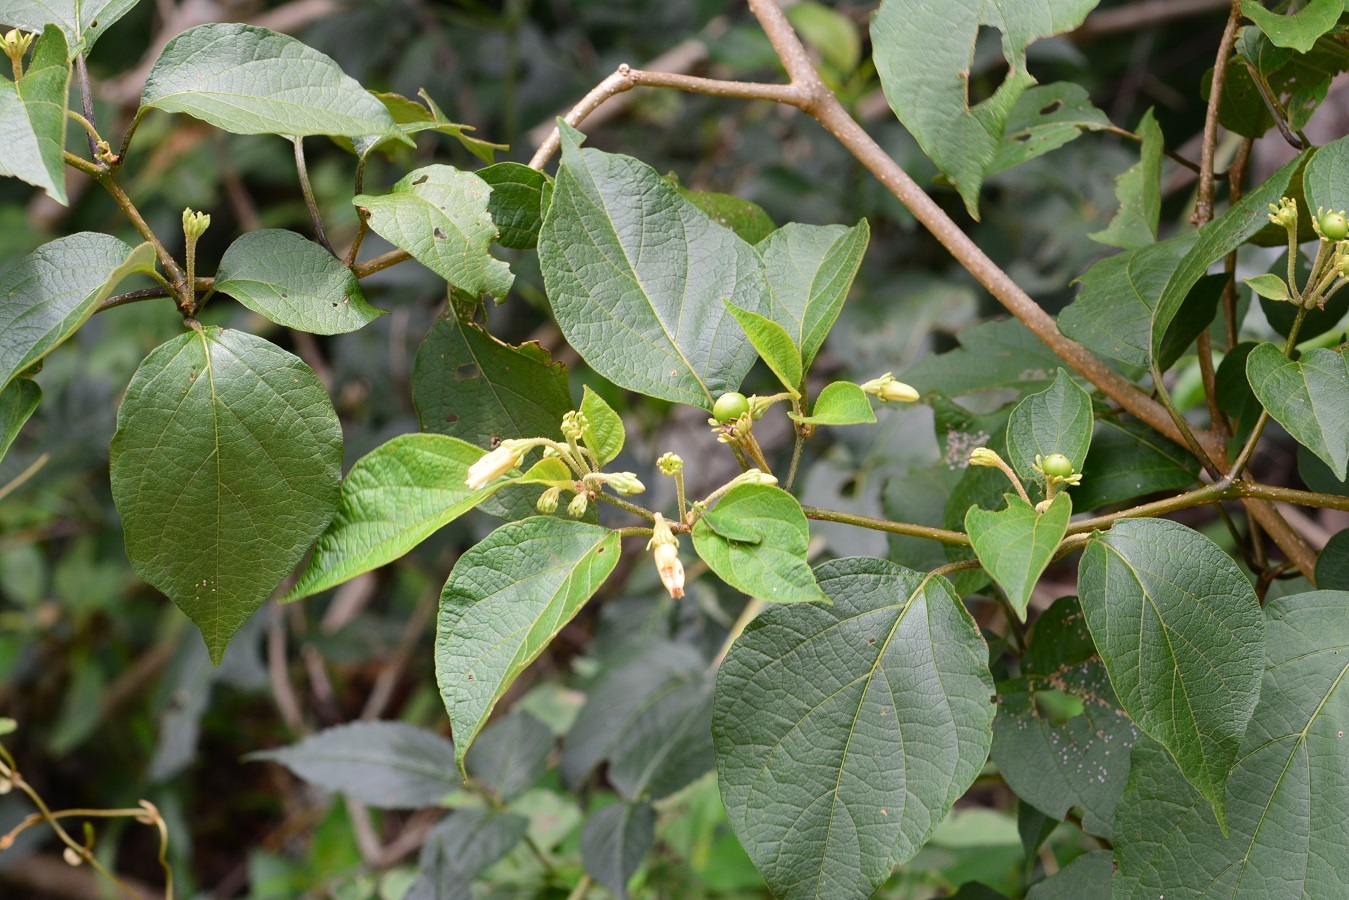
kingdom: Plantae
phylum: Tracheophyta
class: Magnoliopsida
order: Solanales
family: Solanaceae
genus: Lycianthes
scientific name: Lycianthes sideroxyloides
